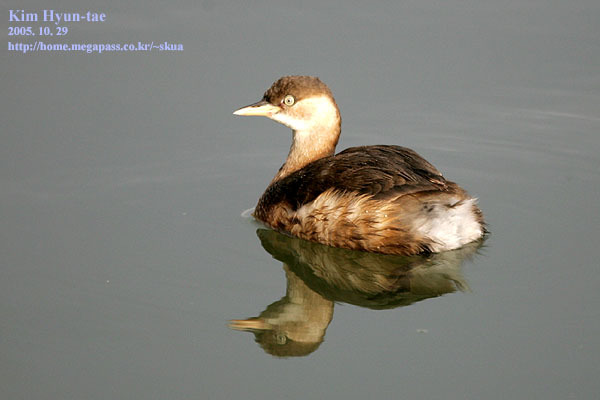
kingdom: Animalia
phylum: Chordata
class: Aves
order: Podicipediformes
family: Podicipedidae
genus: Tachybaptus
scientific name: Tachybaptus ruficollis
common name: Little grebe
